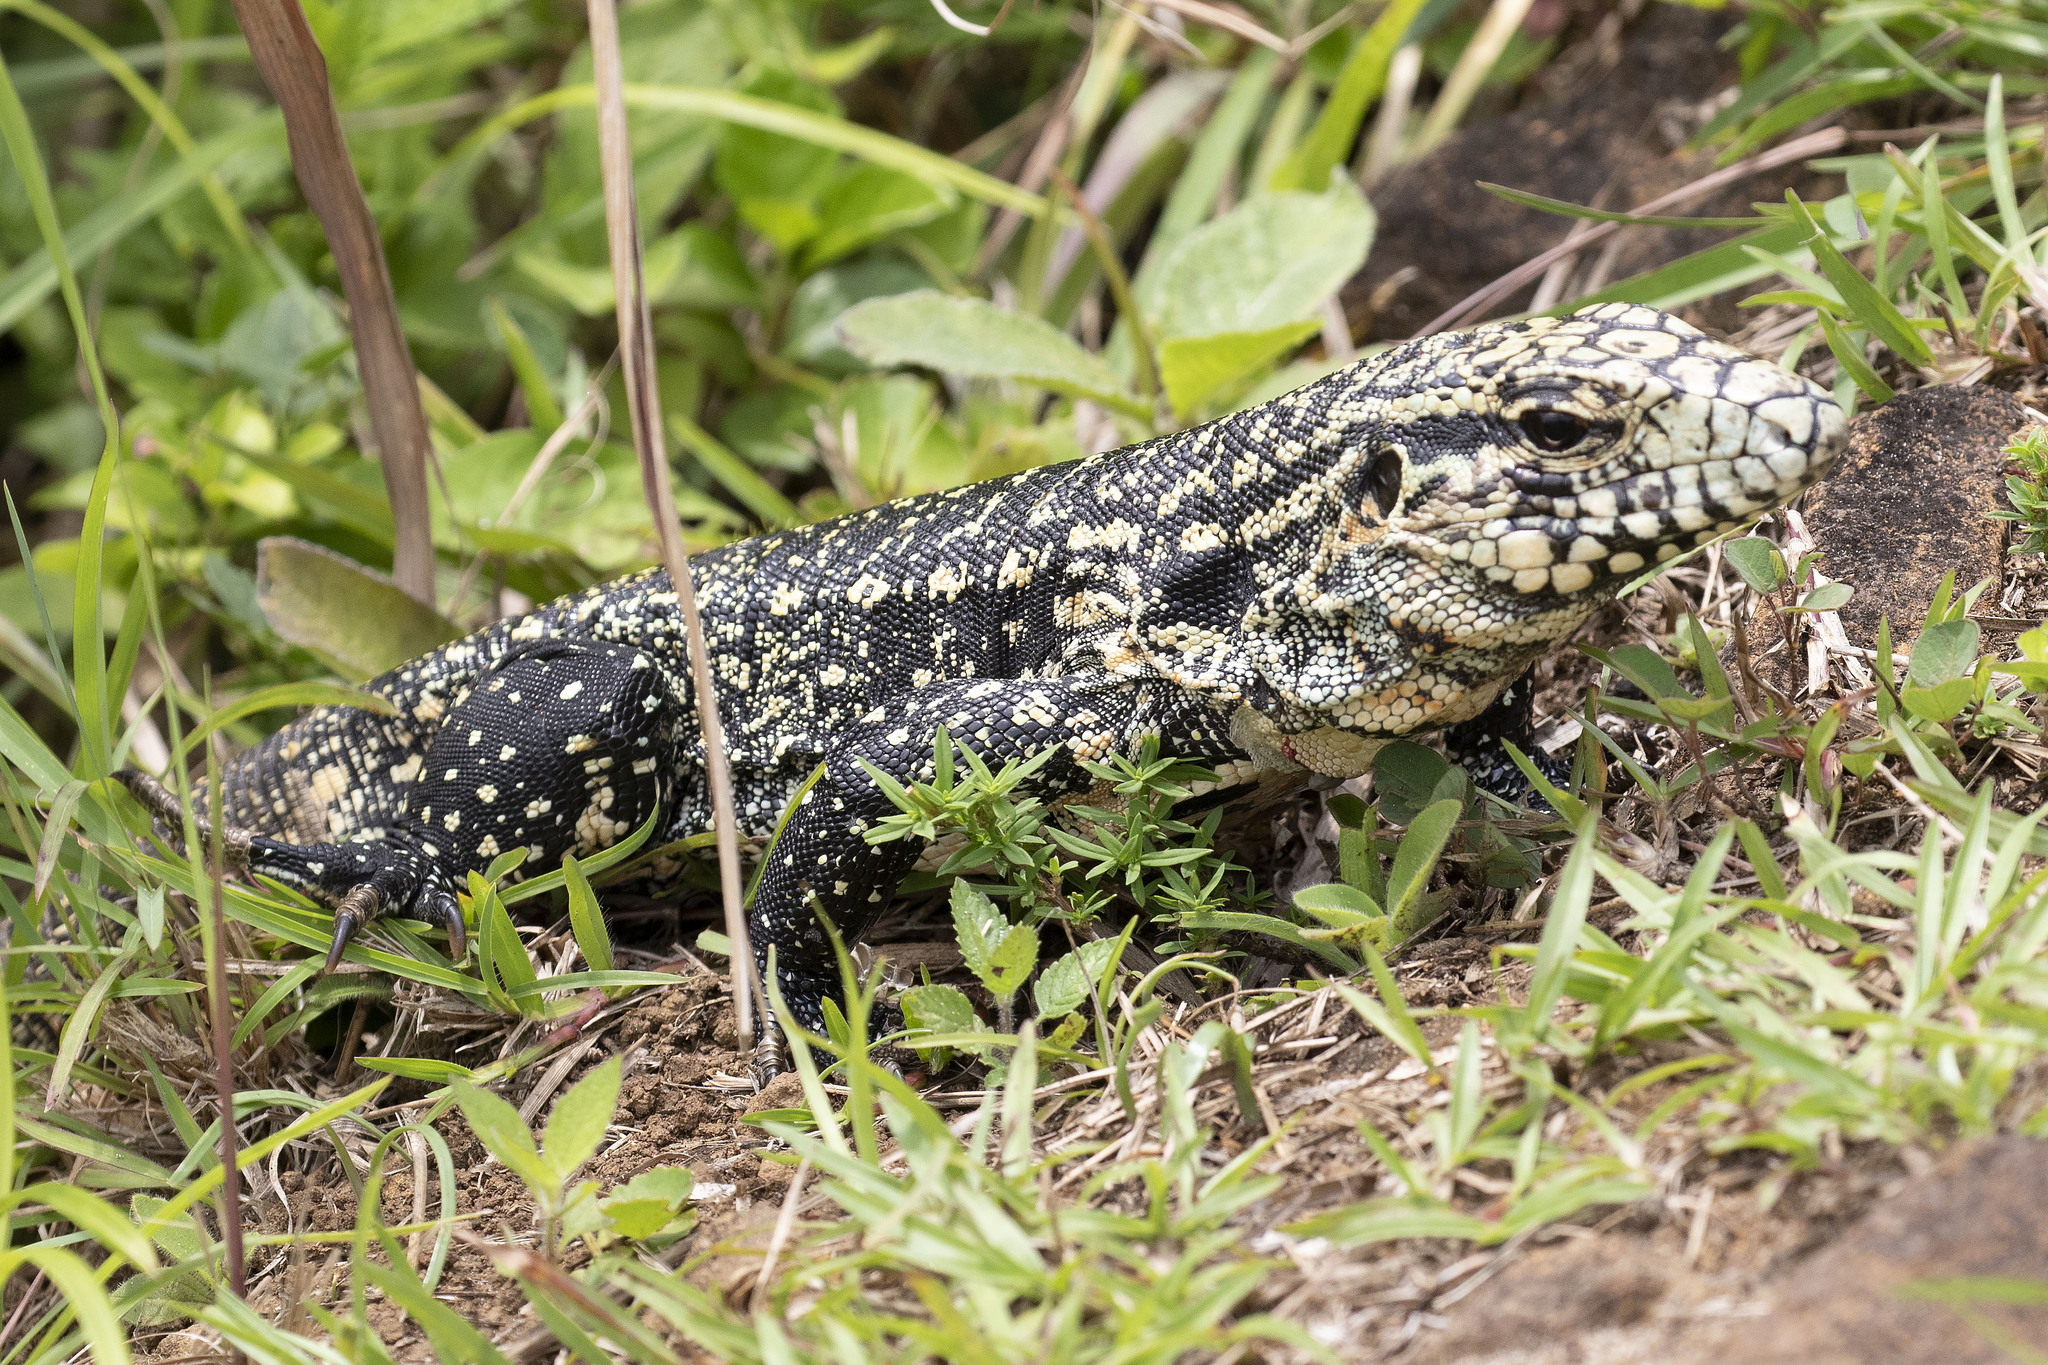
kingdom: Animalia
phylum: Chordata
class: Squamata
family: Teiidae
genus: Salvator
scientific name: Salvator merianae
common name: Argentine black and white tegu
